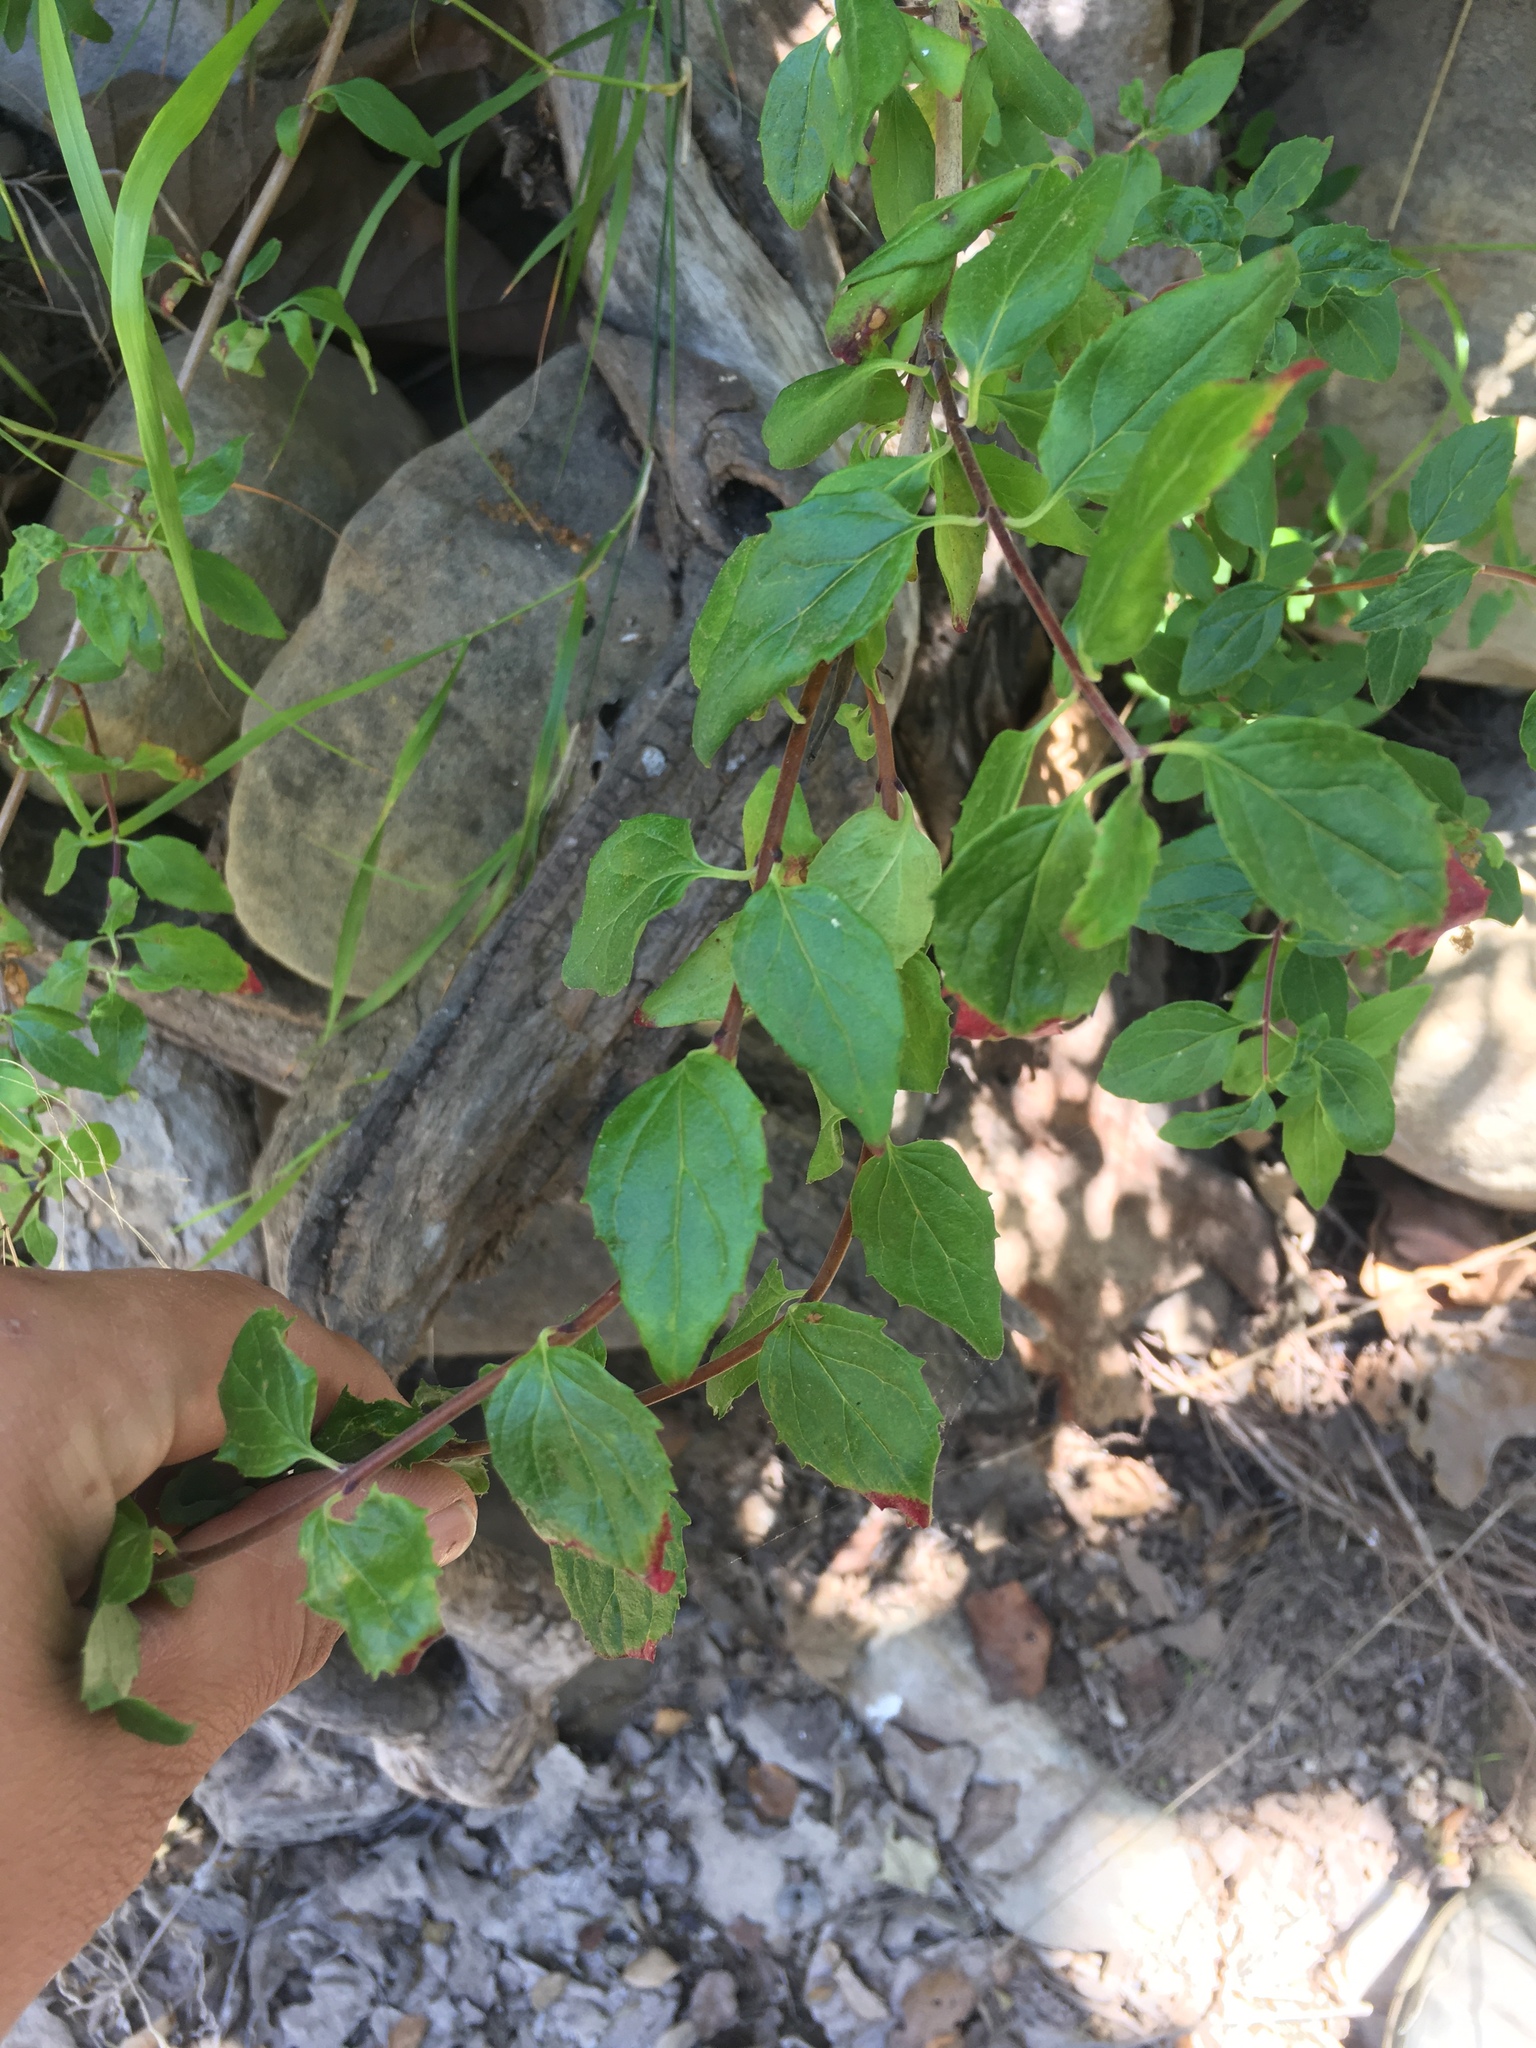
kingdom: Plantae
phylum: Tracheophyta
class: Magnoliopsida
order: Lamiales
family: Plantaginaceae
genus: Keckiella
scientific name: Keckiella cordifolia
